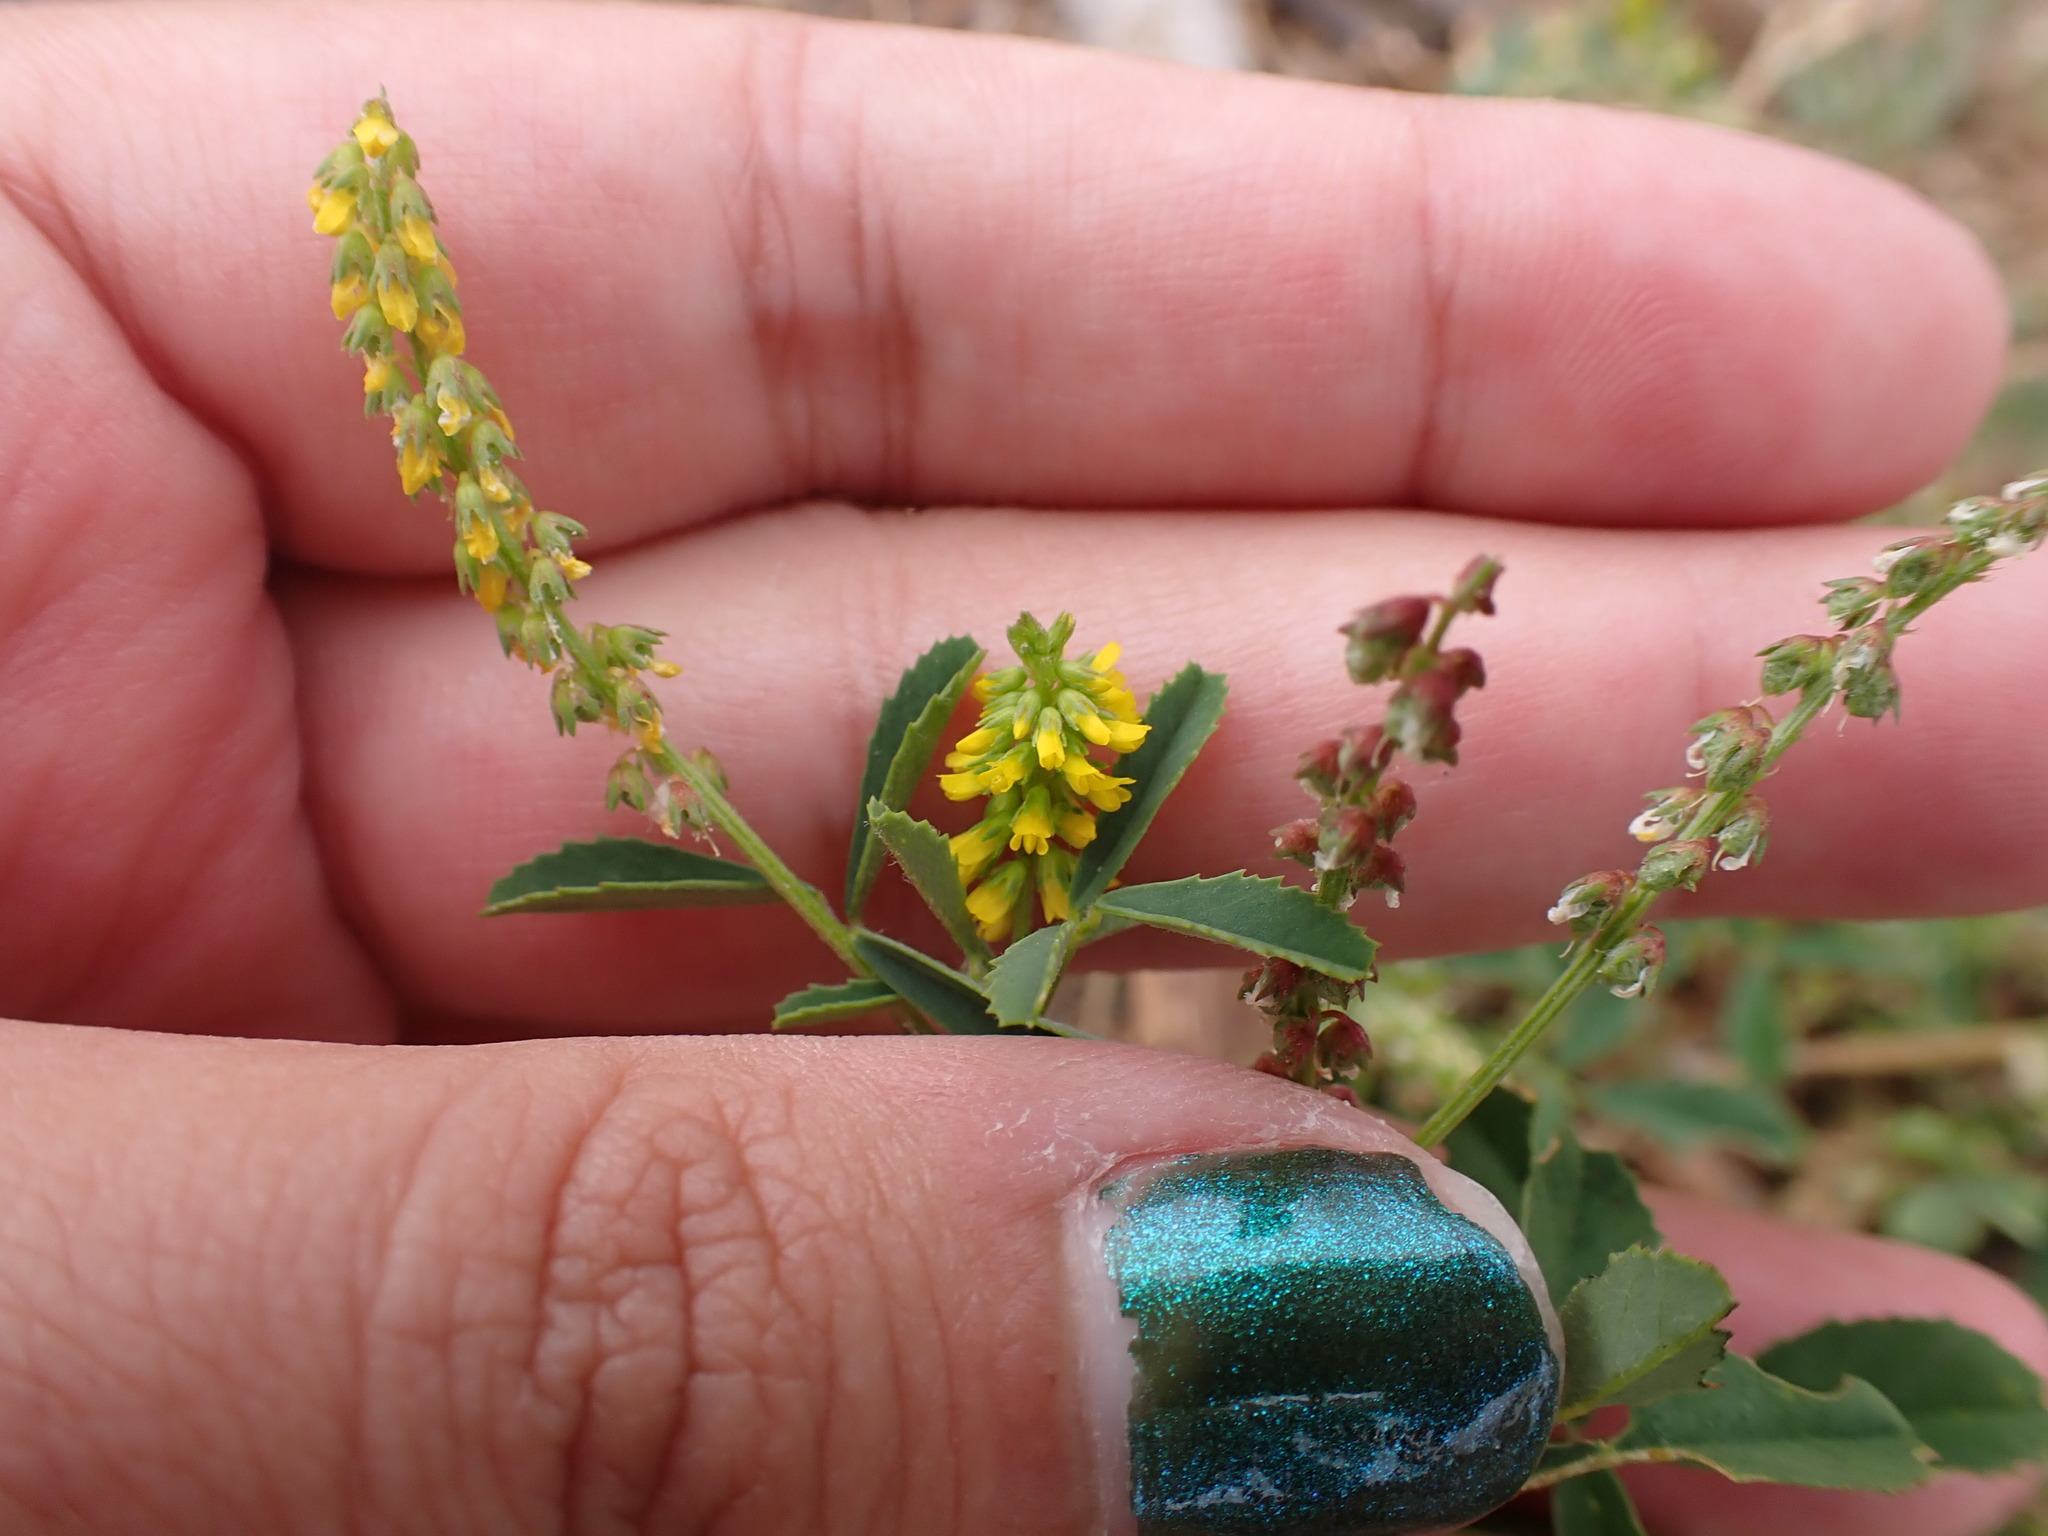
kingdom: Plantae
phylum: Tracheophyta
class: Magnoliopsida
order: Fabales
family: Fabaceae
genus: Melilotus
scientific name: Melilotus indicus
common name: Small melilot
